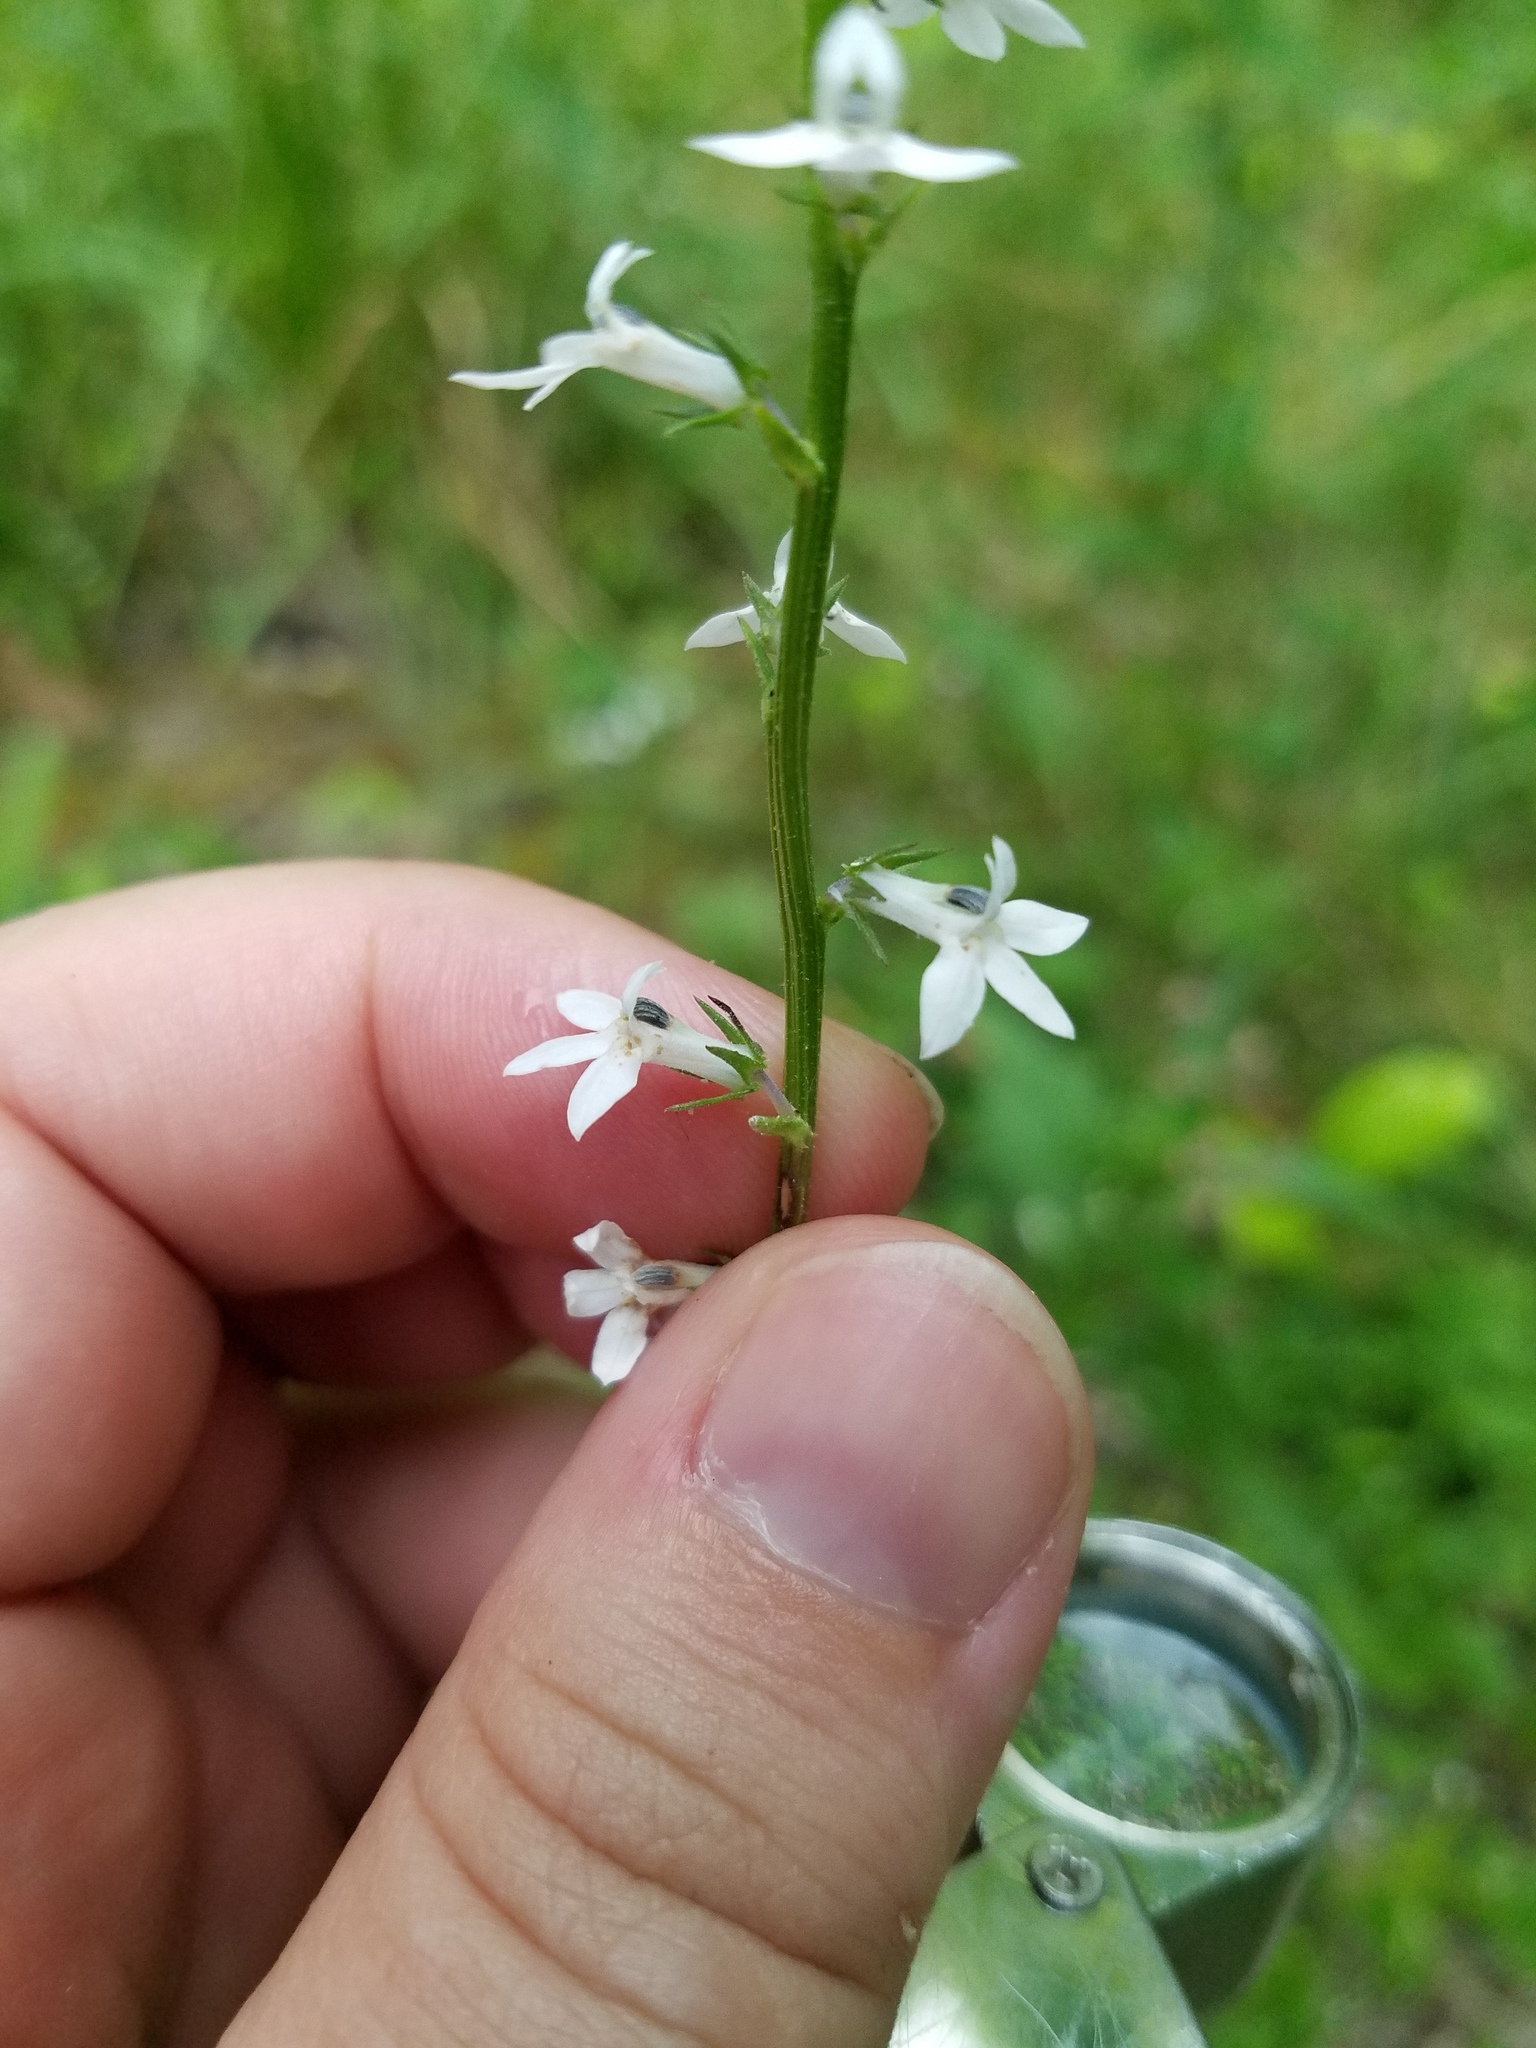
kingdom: Plantae
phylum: Tracheophyta
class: Magnoliopsida
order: Asterales
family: Campanulaceae
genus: Lobelia
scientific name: Lobelia spicata
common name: Pale-spike lobelia
